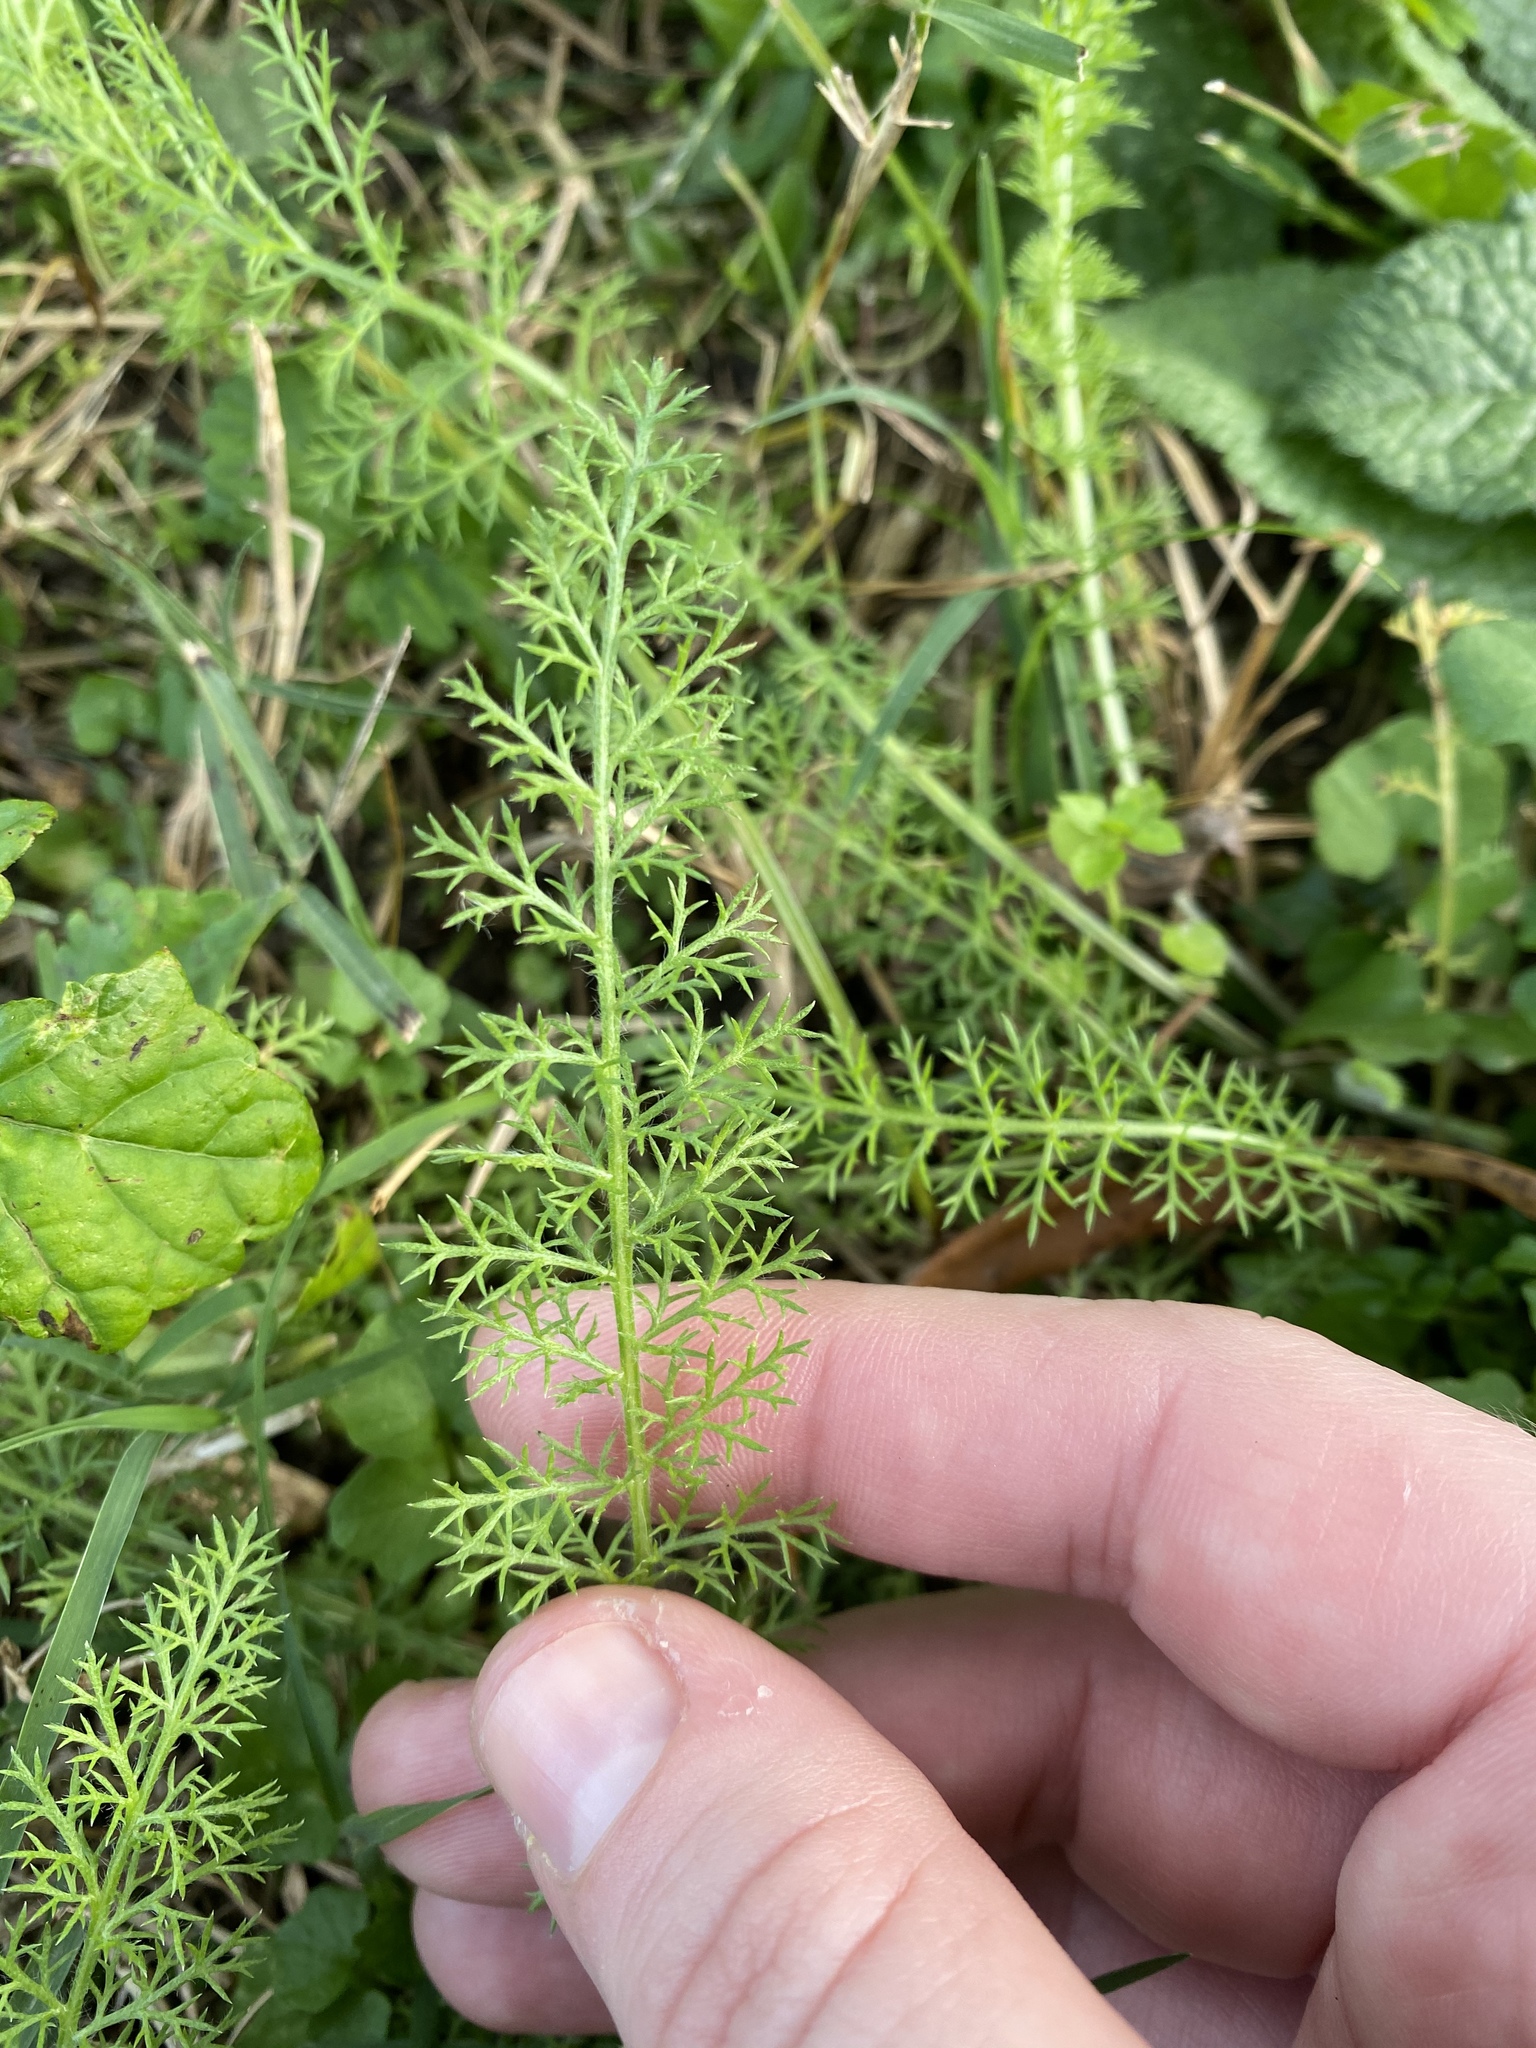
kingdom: Plantae
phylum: Tracheophyta
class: Magnoliopsida
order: Asterales
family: Asteraceae
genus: Achillea
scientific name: Achillea millefolium
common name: Yarrow
